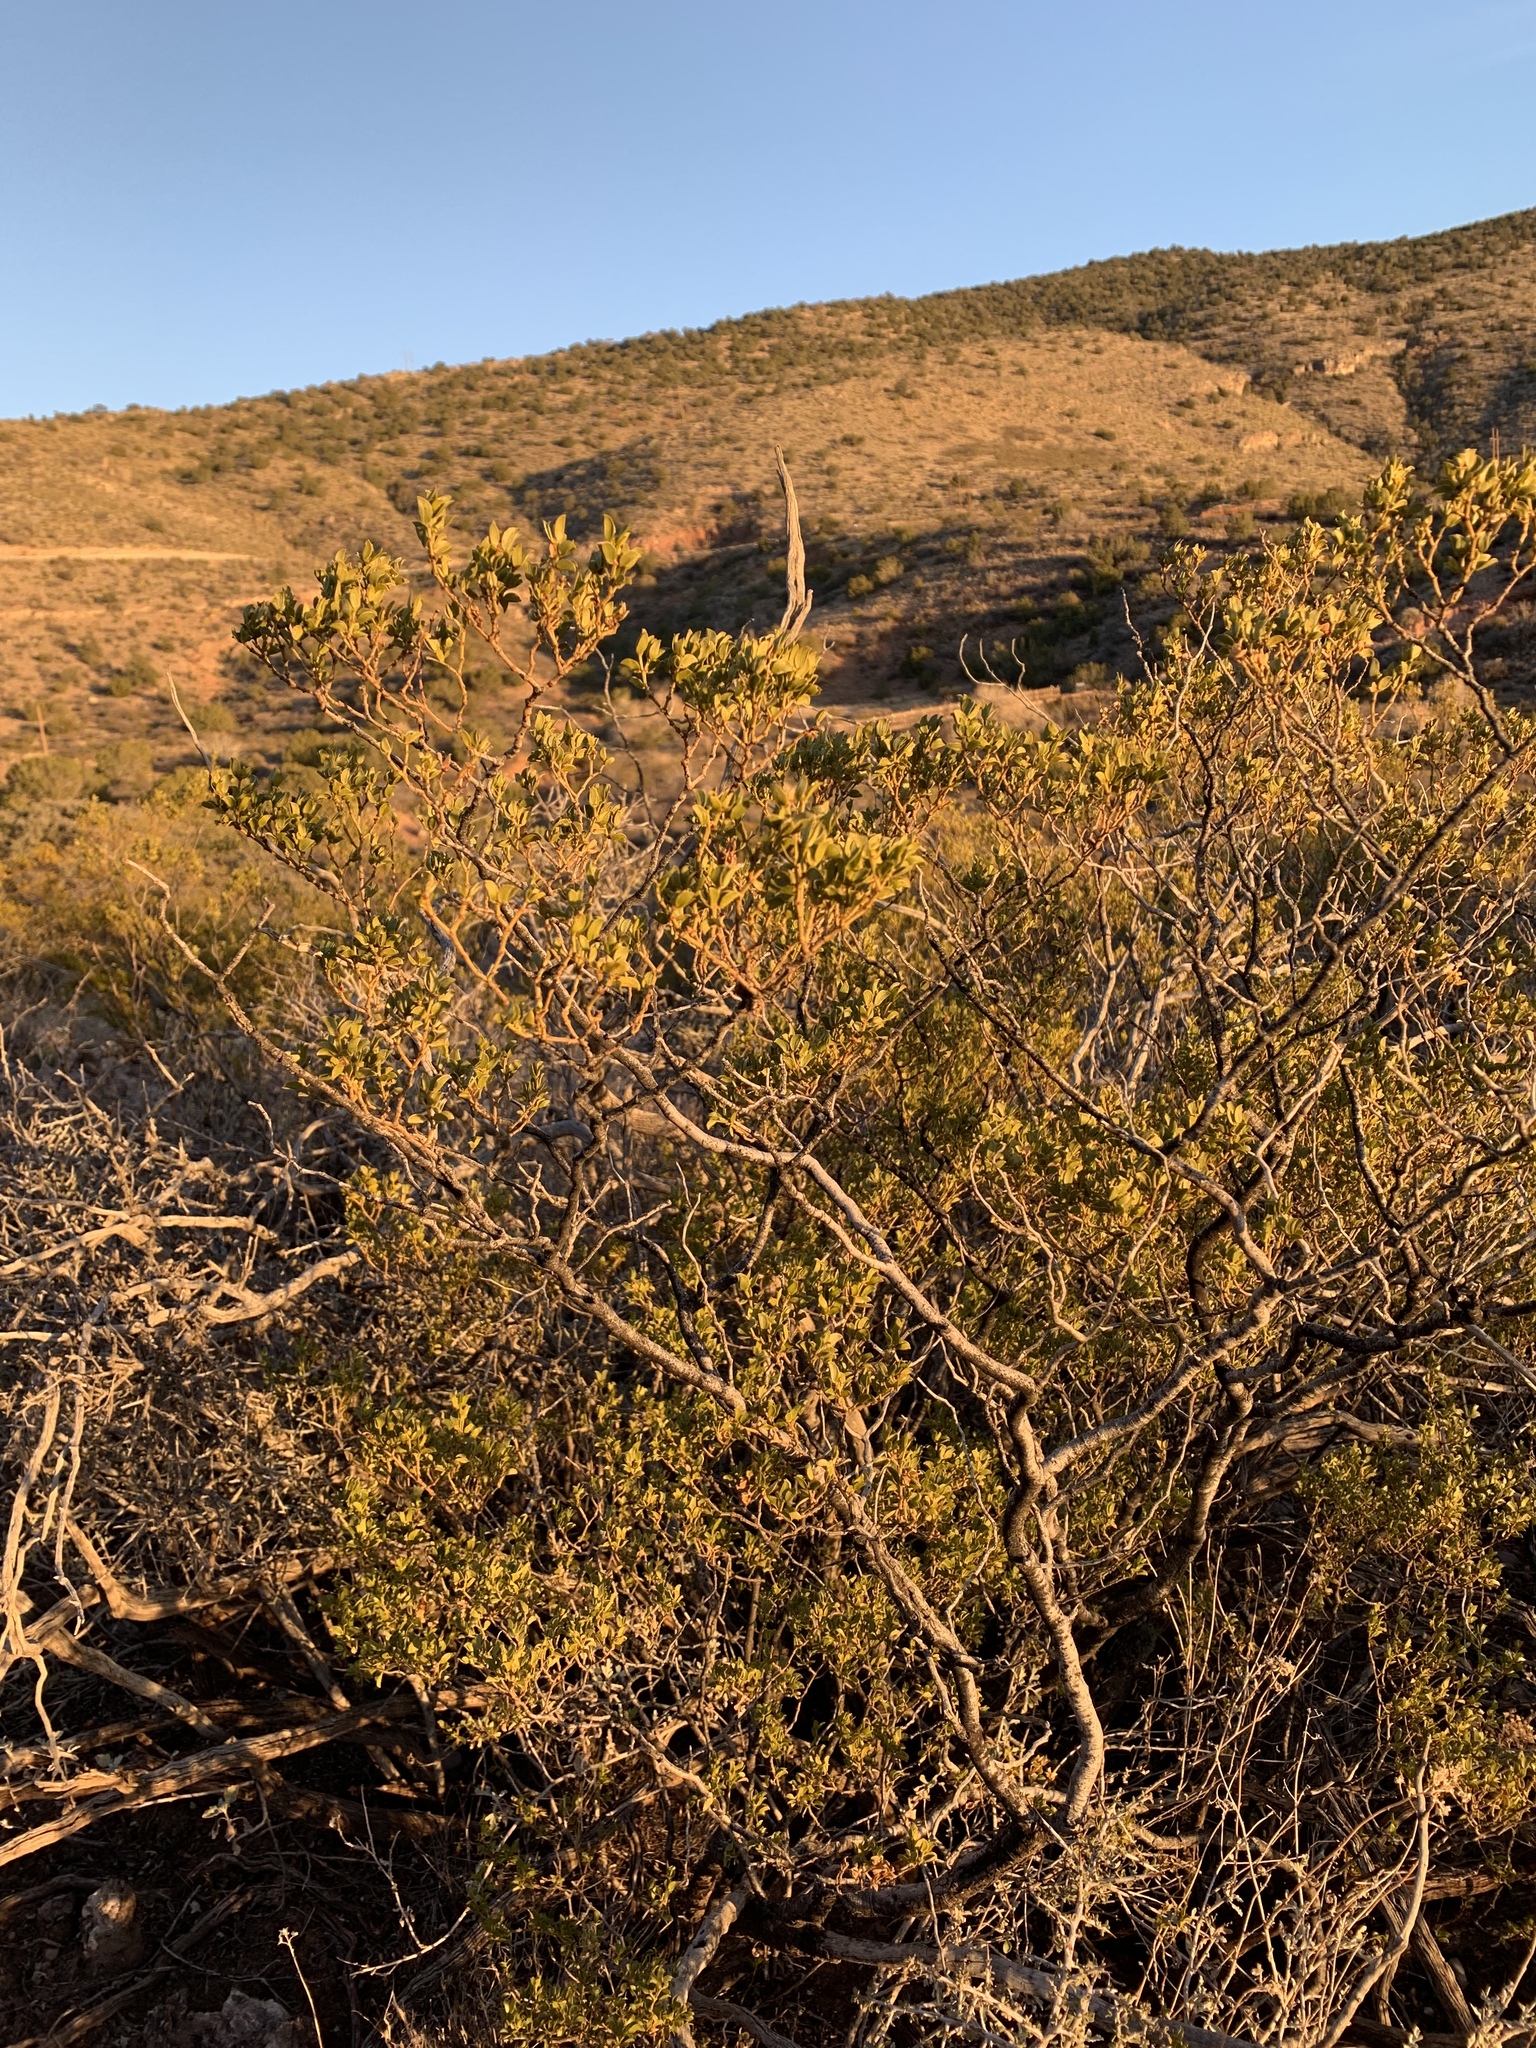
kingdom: Plantae
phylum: Tracheophyta
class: Magnoliopsida
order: Zygophyllales
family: Zygophyllaceae
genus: Larrea
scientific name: Larrea tridentata
